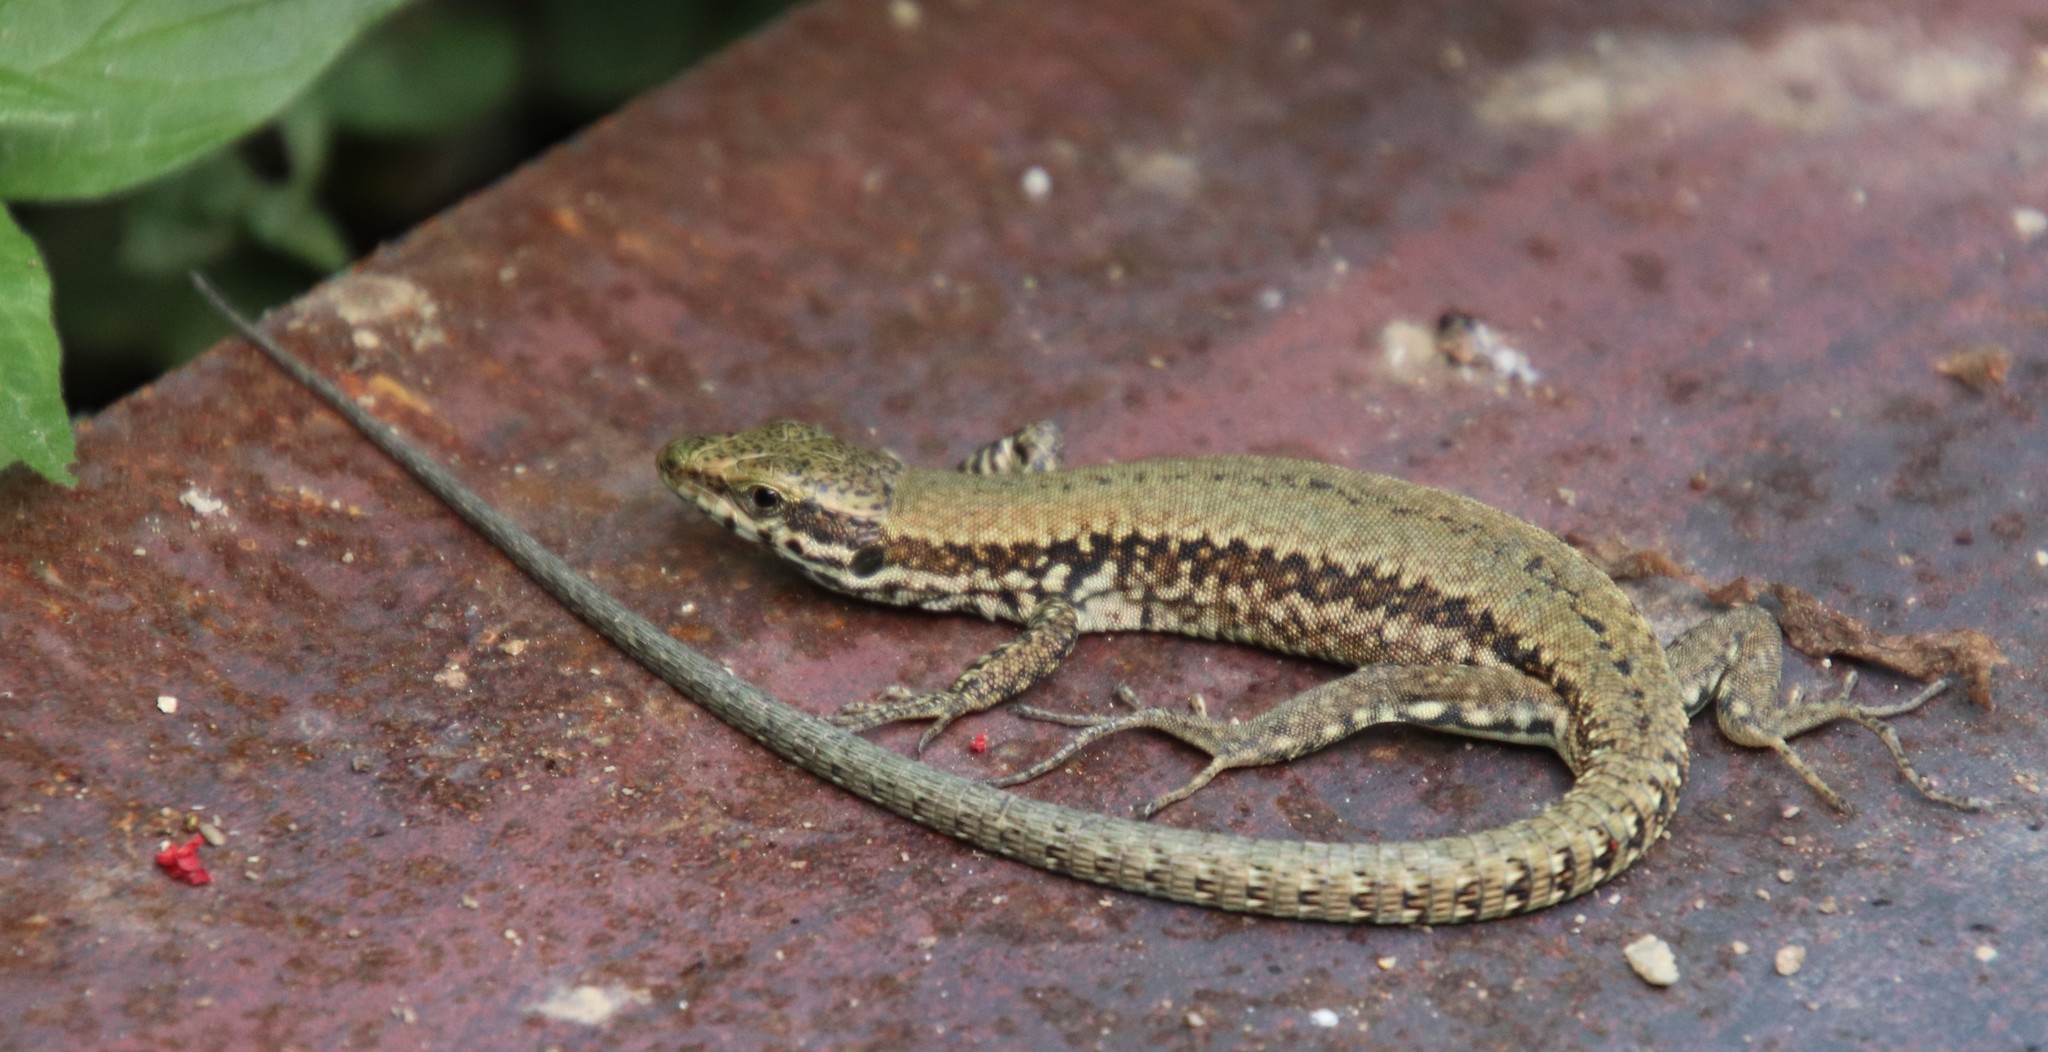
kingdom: Animalia
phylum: Chordata
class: Squamata
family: Lacertidae
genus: Podarcis
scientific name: Podarcis muralis
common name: Common wall lizard
